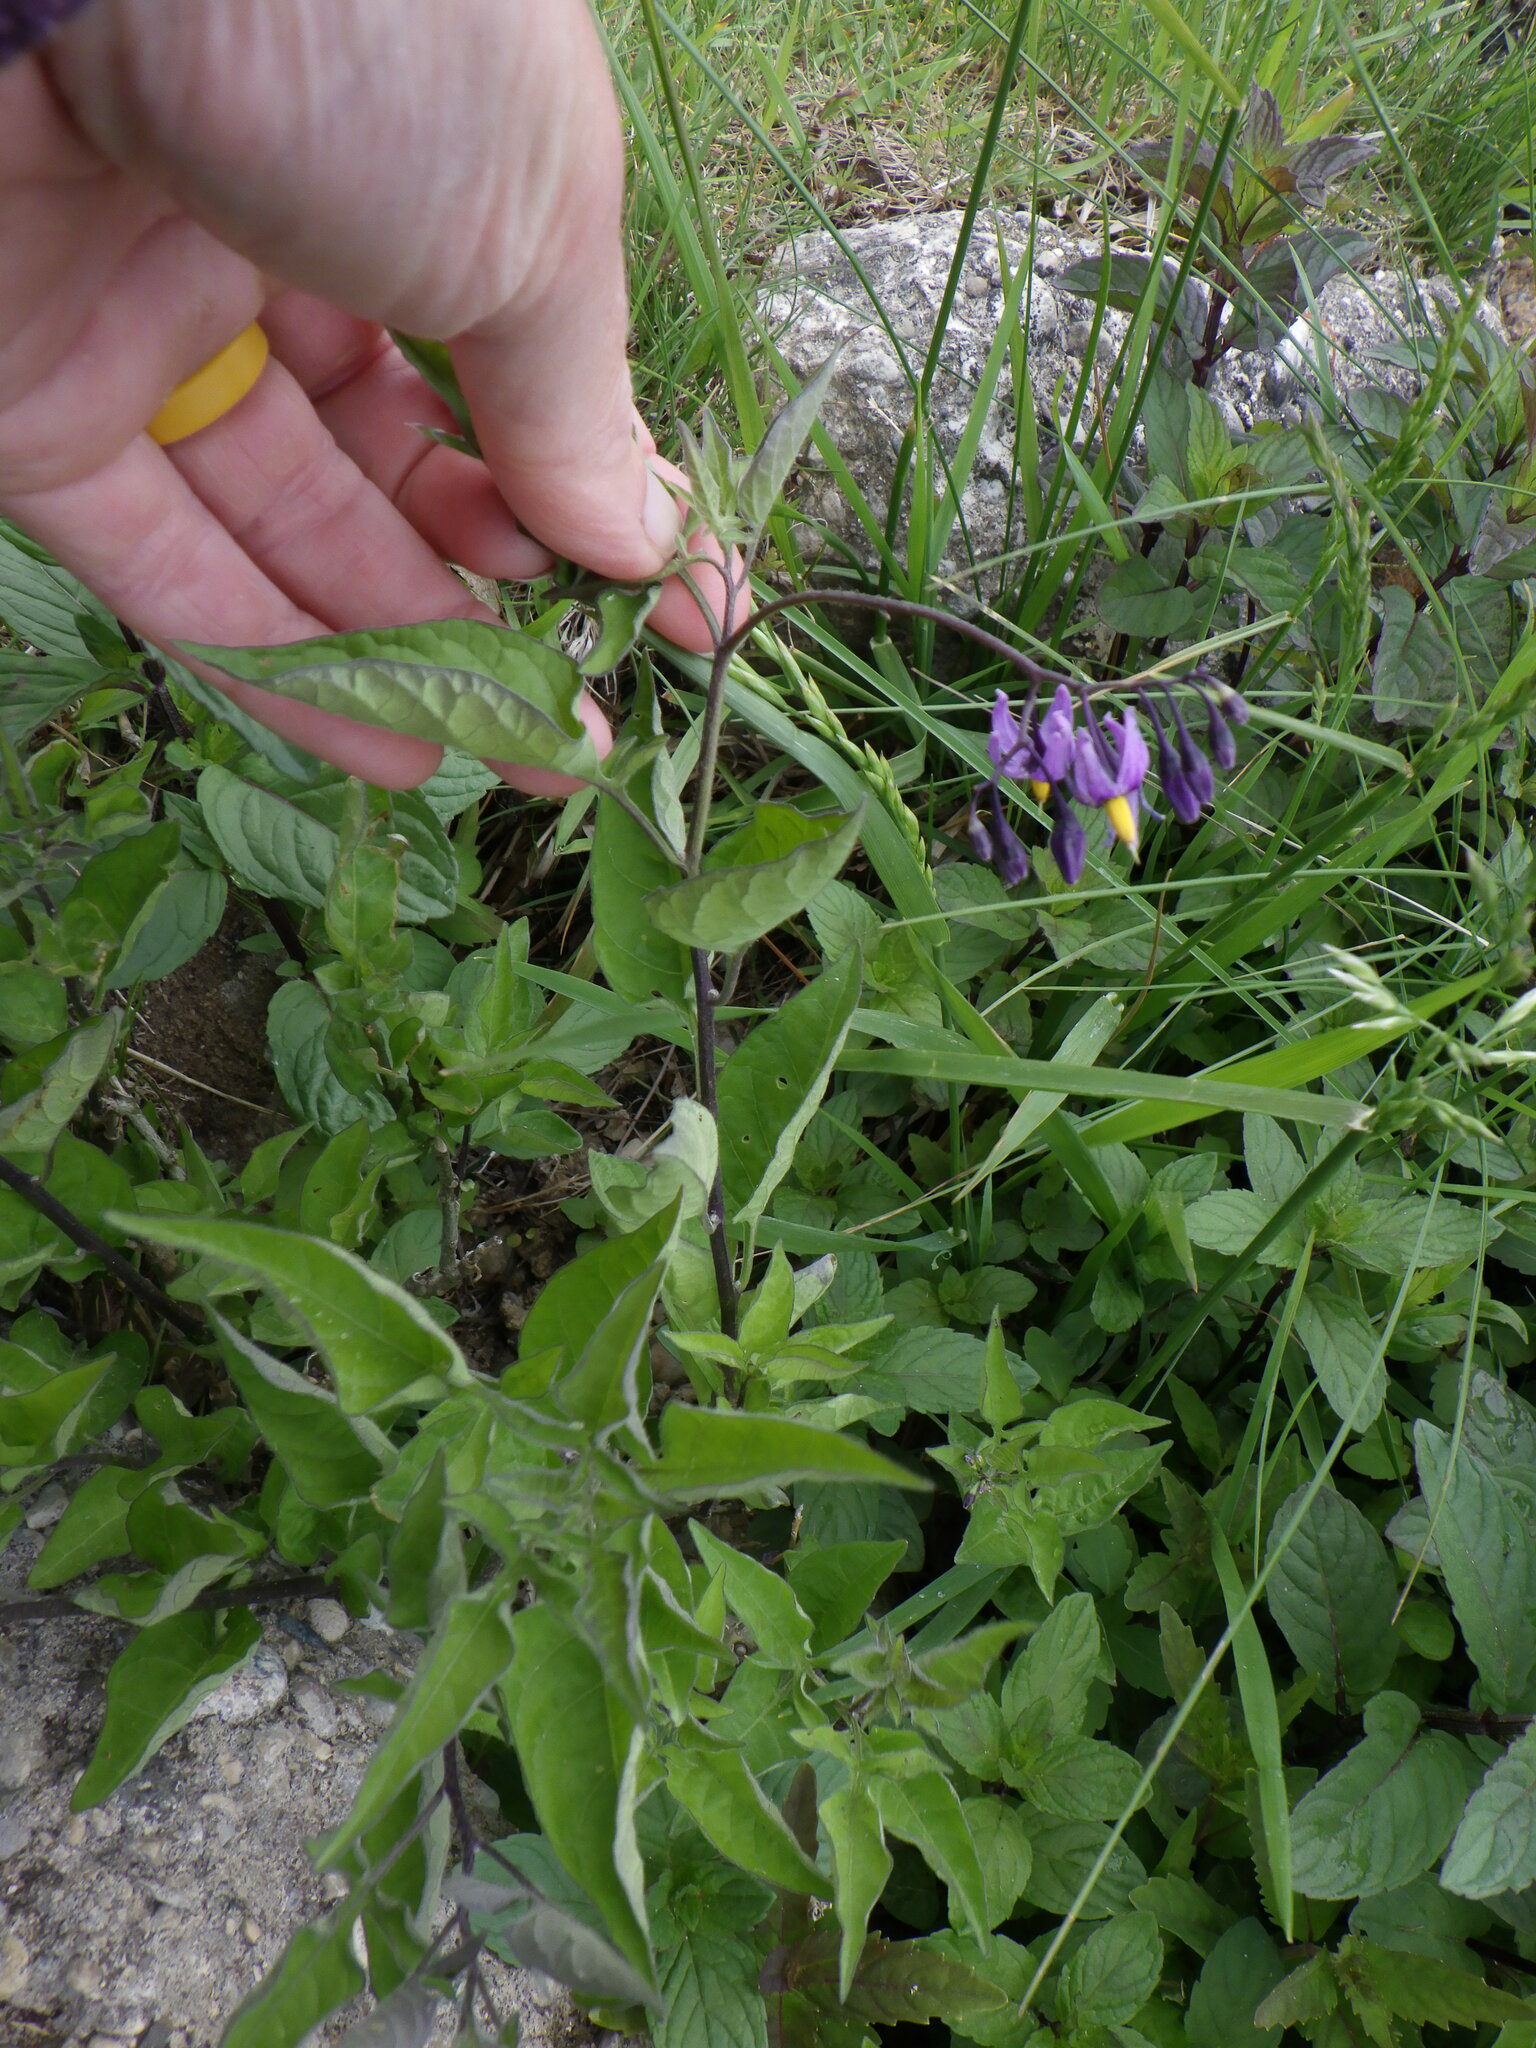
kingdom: Plantae
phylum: Tracheophyta
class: Magnoliopsida
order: Solanales
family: Solanaceae
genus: Solanum
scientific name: Solanum dulcamara
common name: Climbing nightshade
